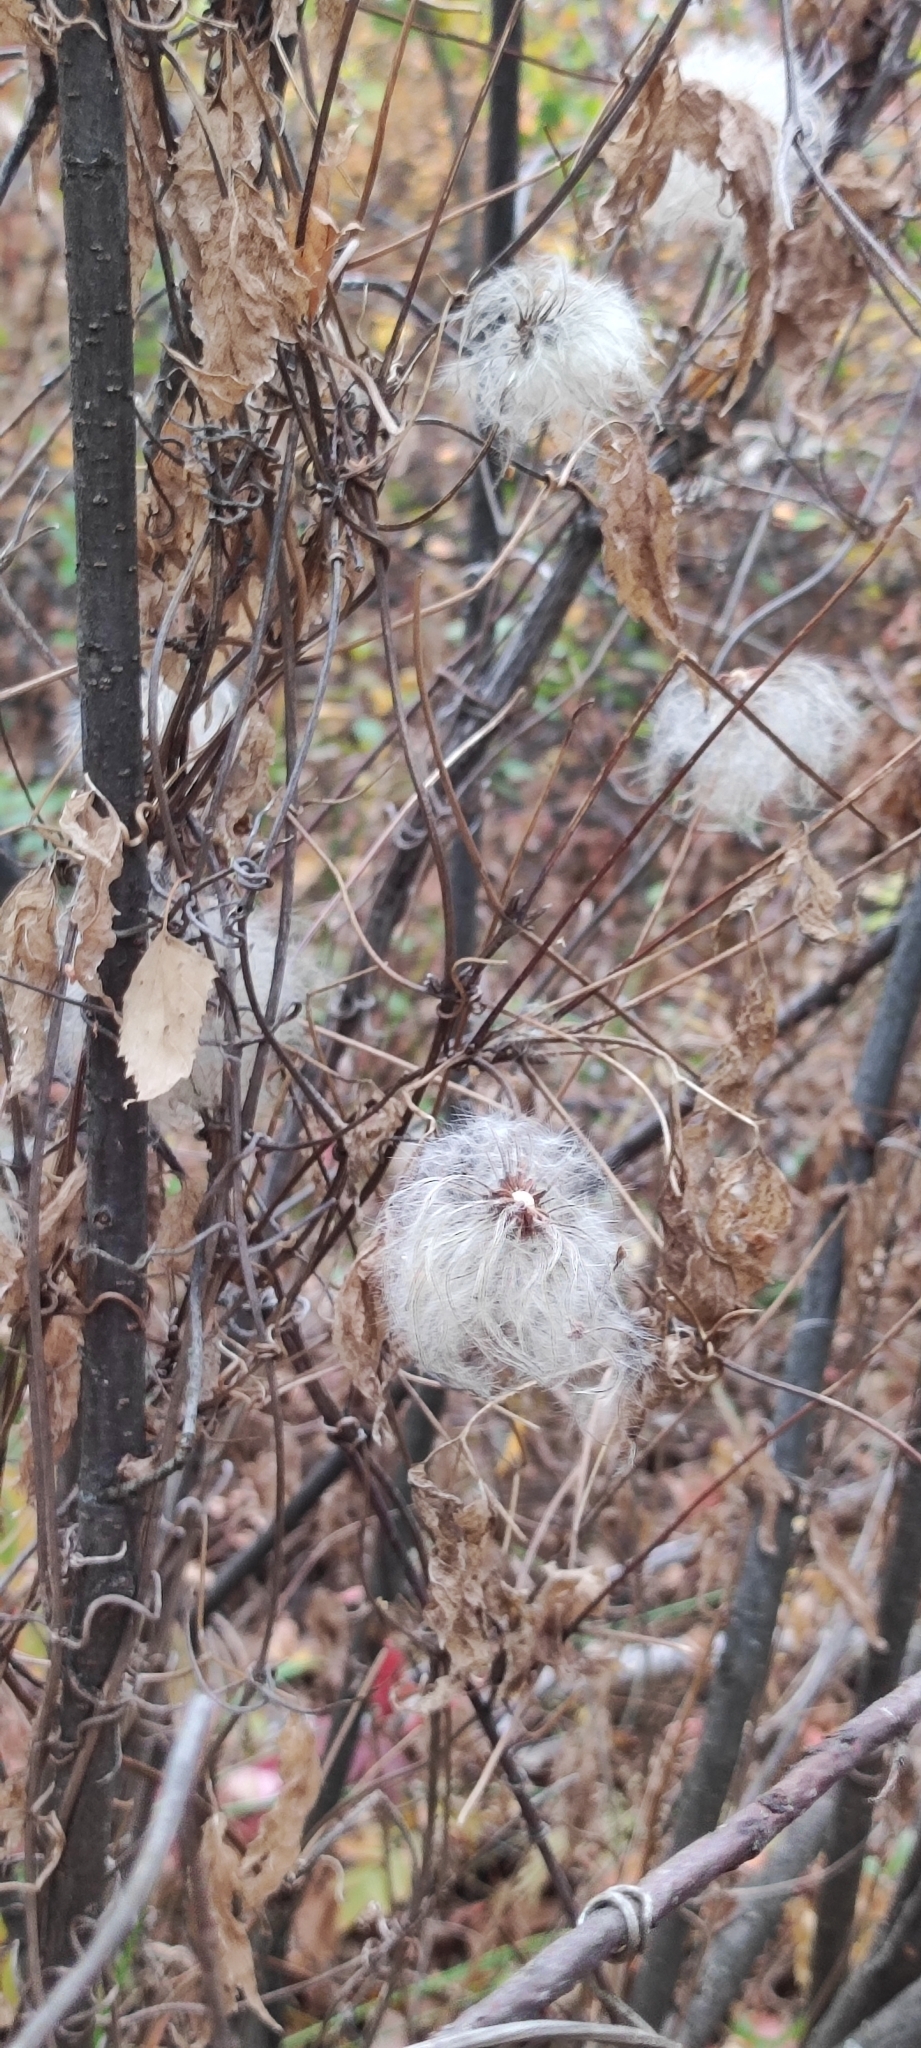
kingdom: Plantae
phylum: Tracheophyta
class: Magnoliopsida
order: Ranunculales
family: Ranunculaceae
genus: Clematis
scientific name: Clematis sibirica
